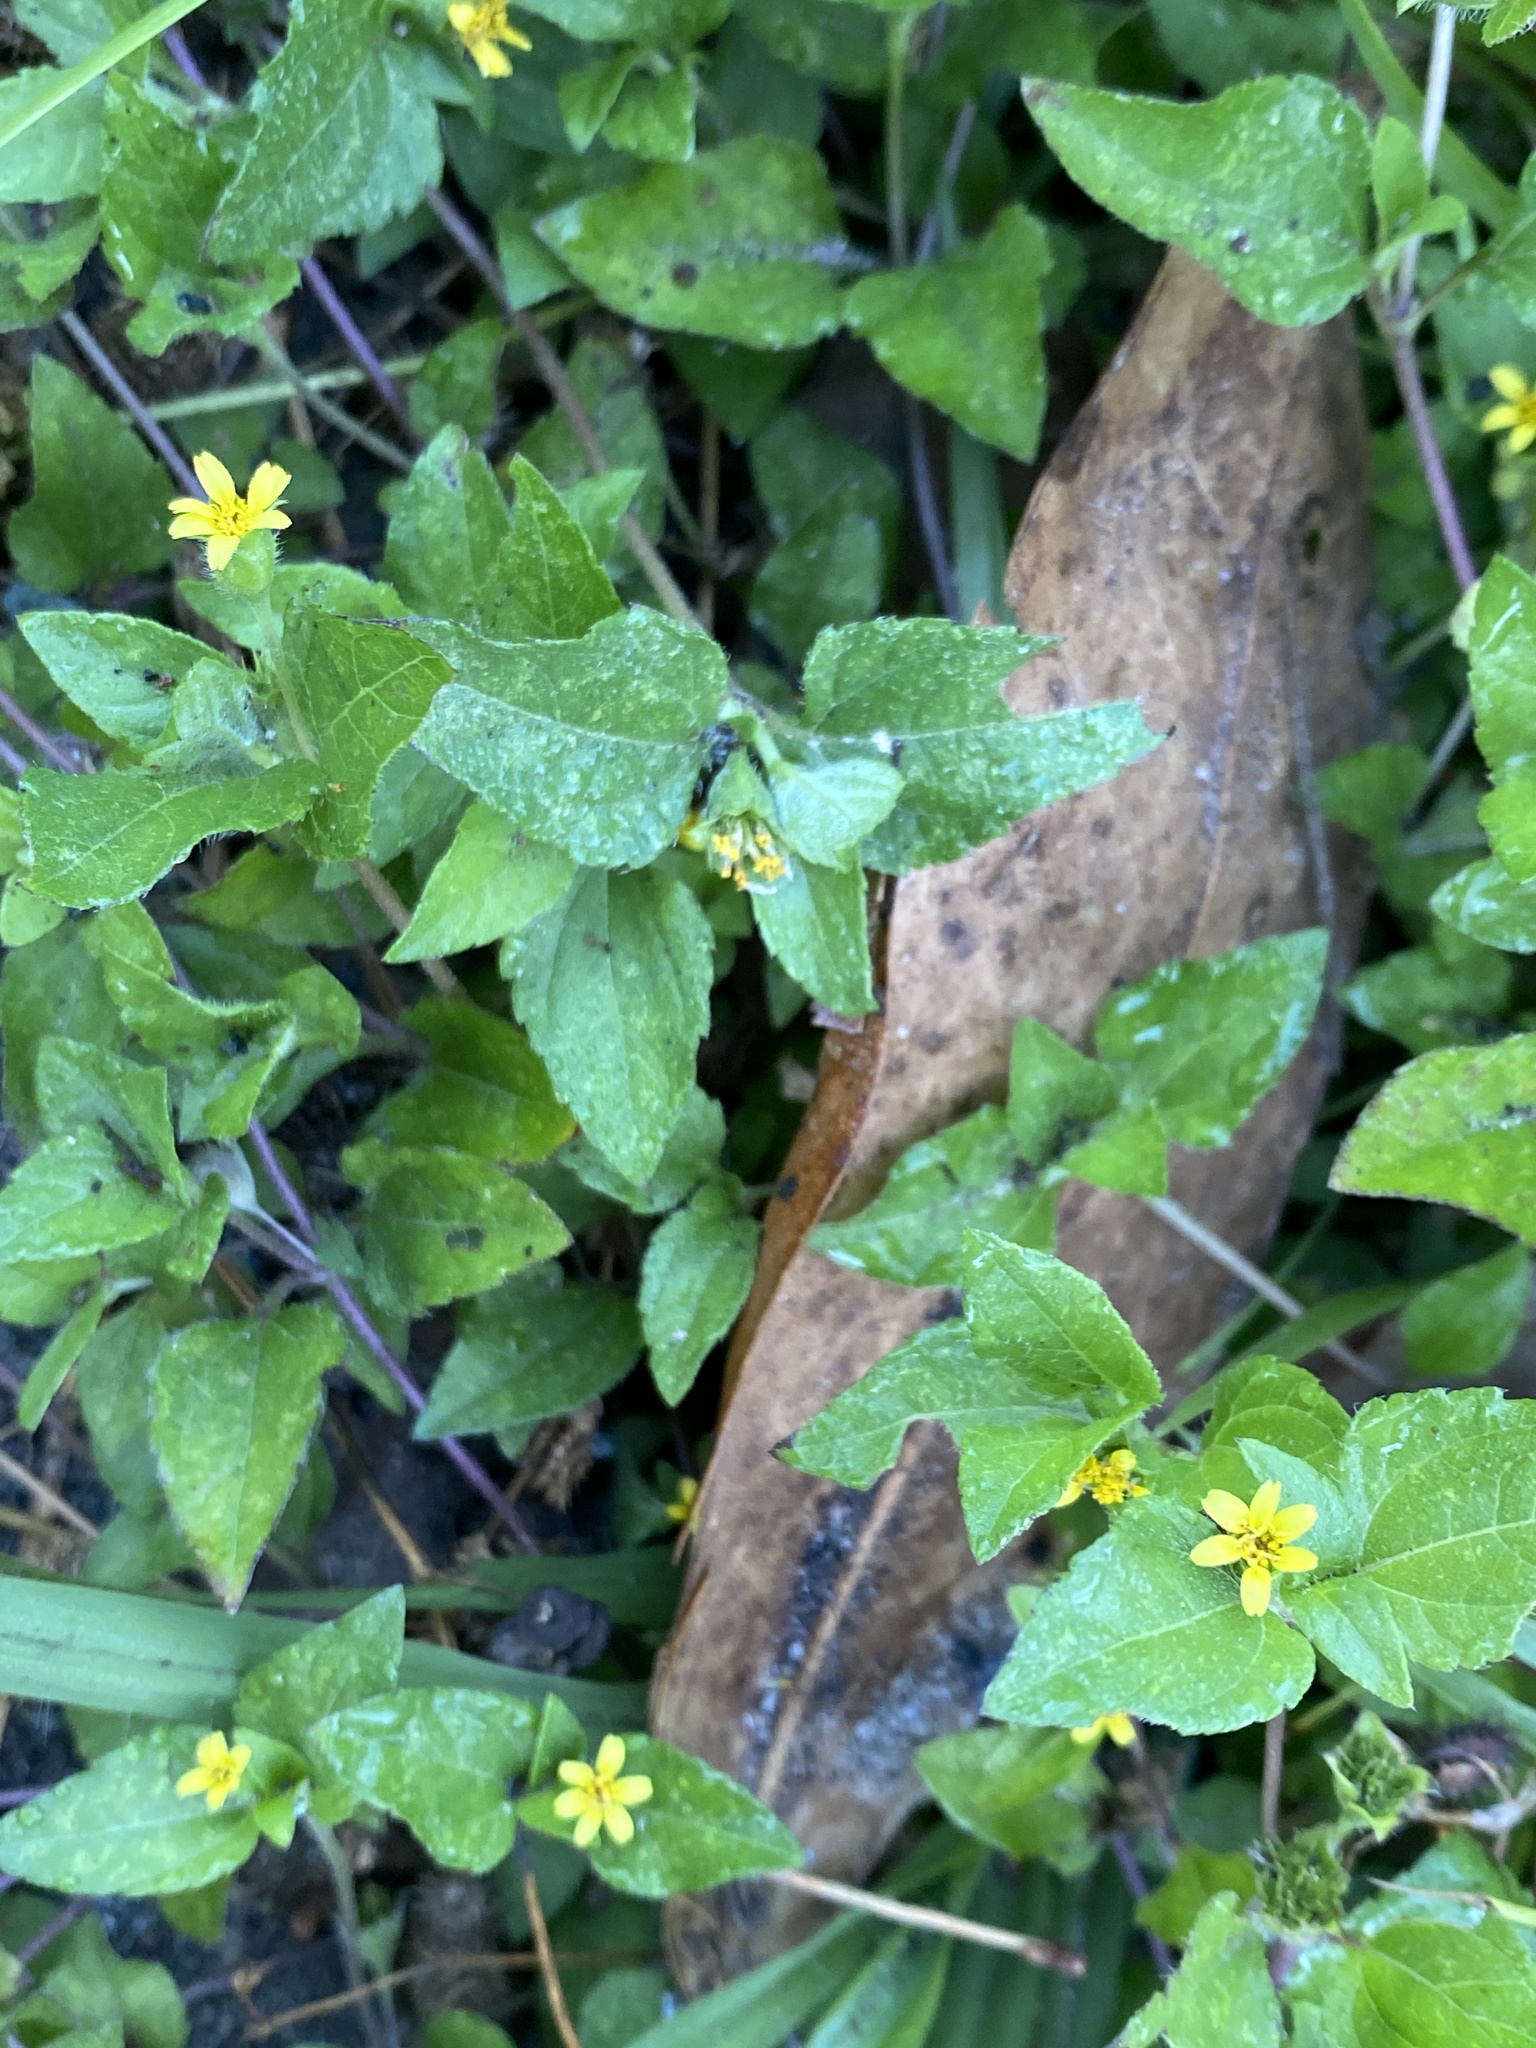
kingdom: Plantae
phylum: Tracheophyta
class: Magnoliopsida
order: Asterales
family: Asteraceae
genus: Calyptocarpus
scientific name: Calyptocarpus vialis
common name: Straggler daisy
